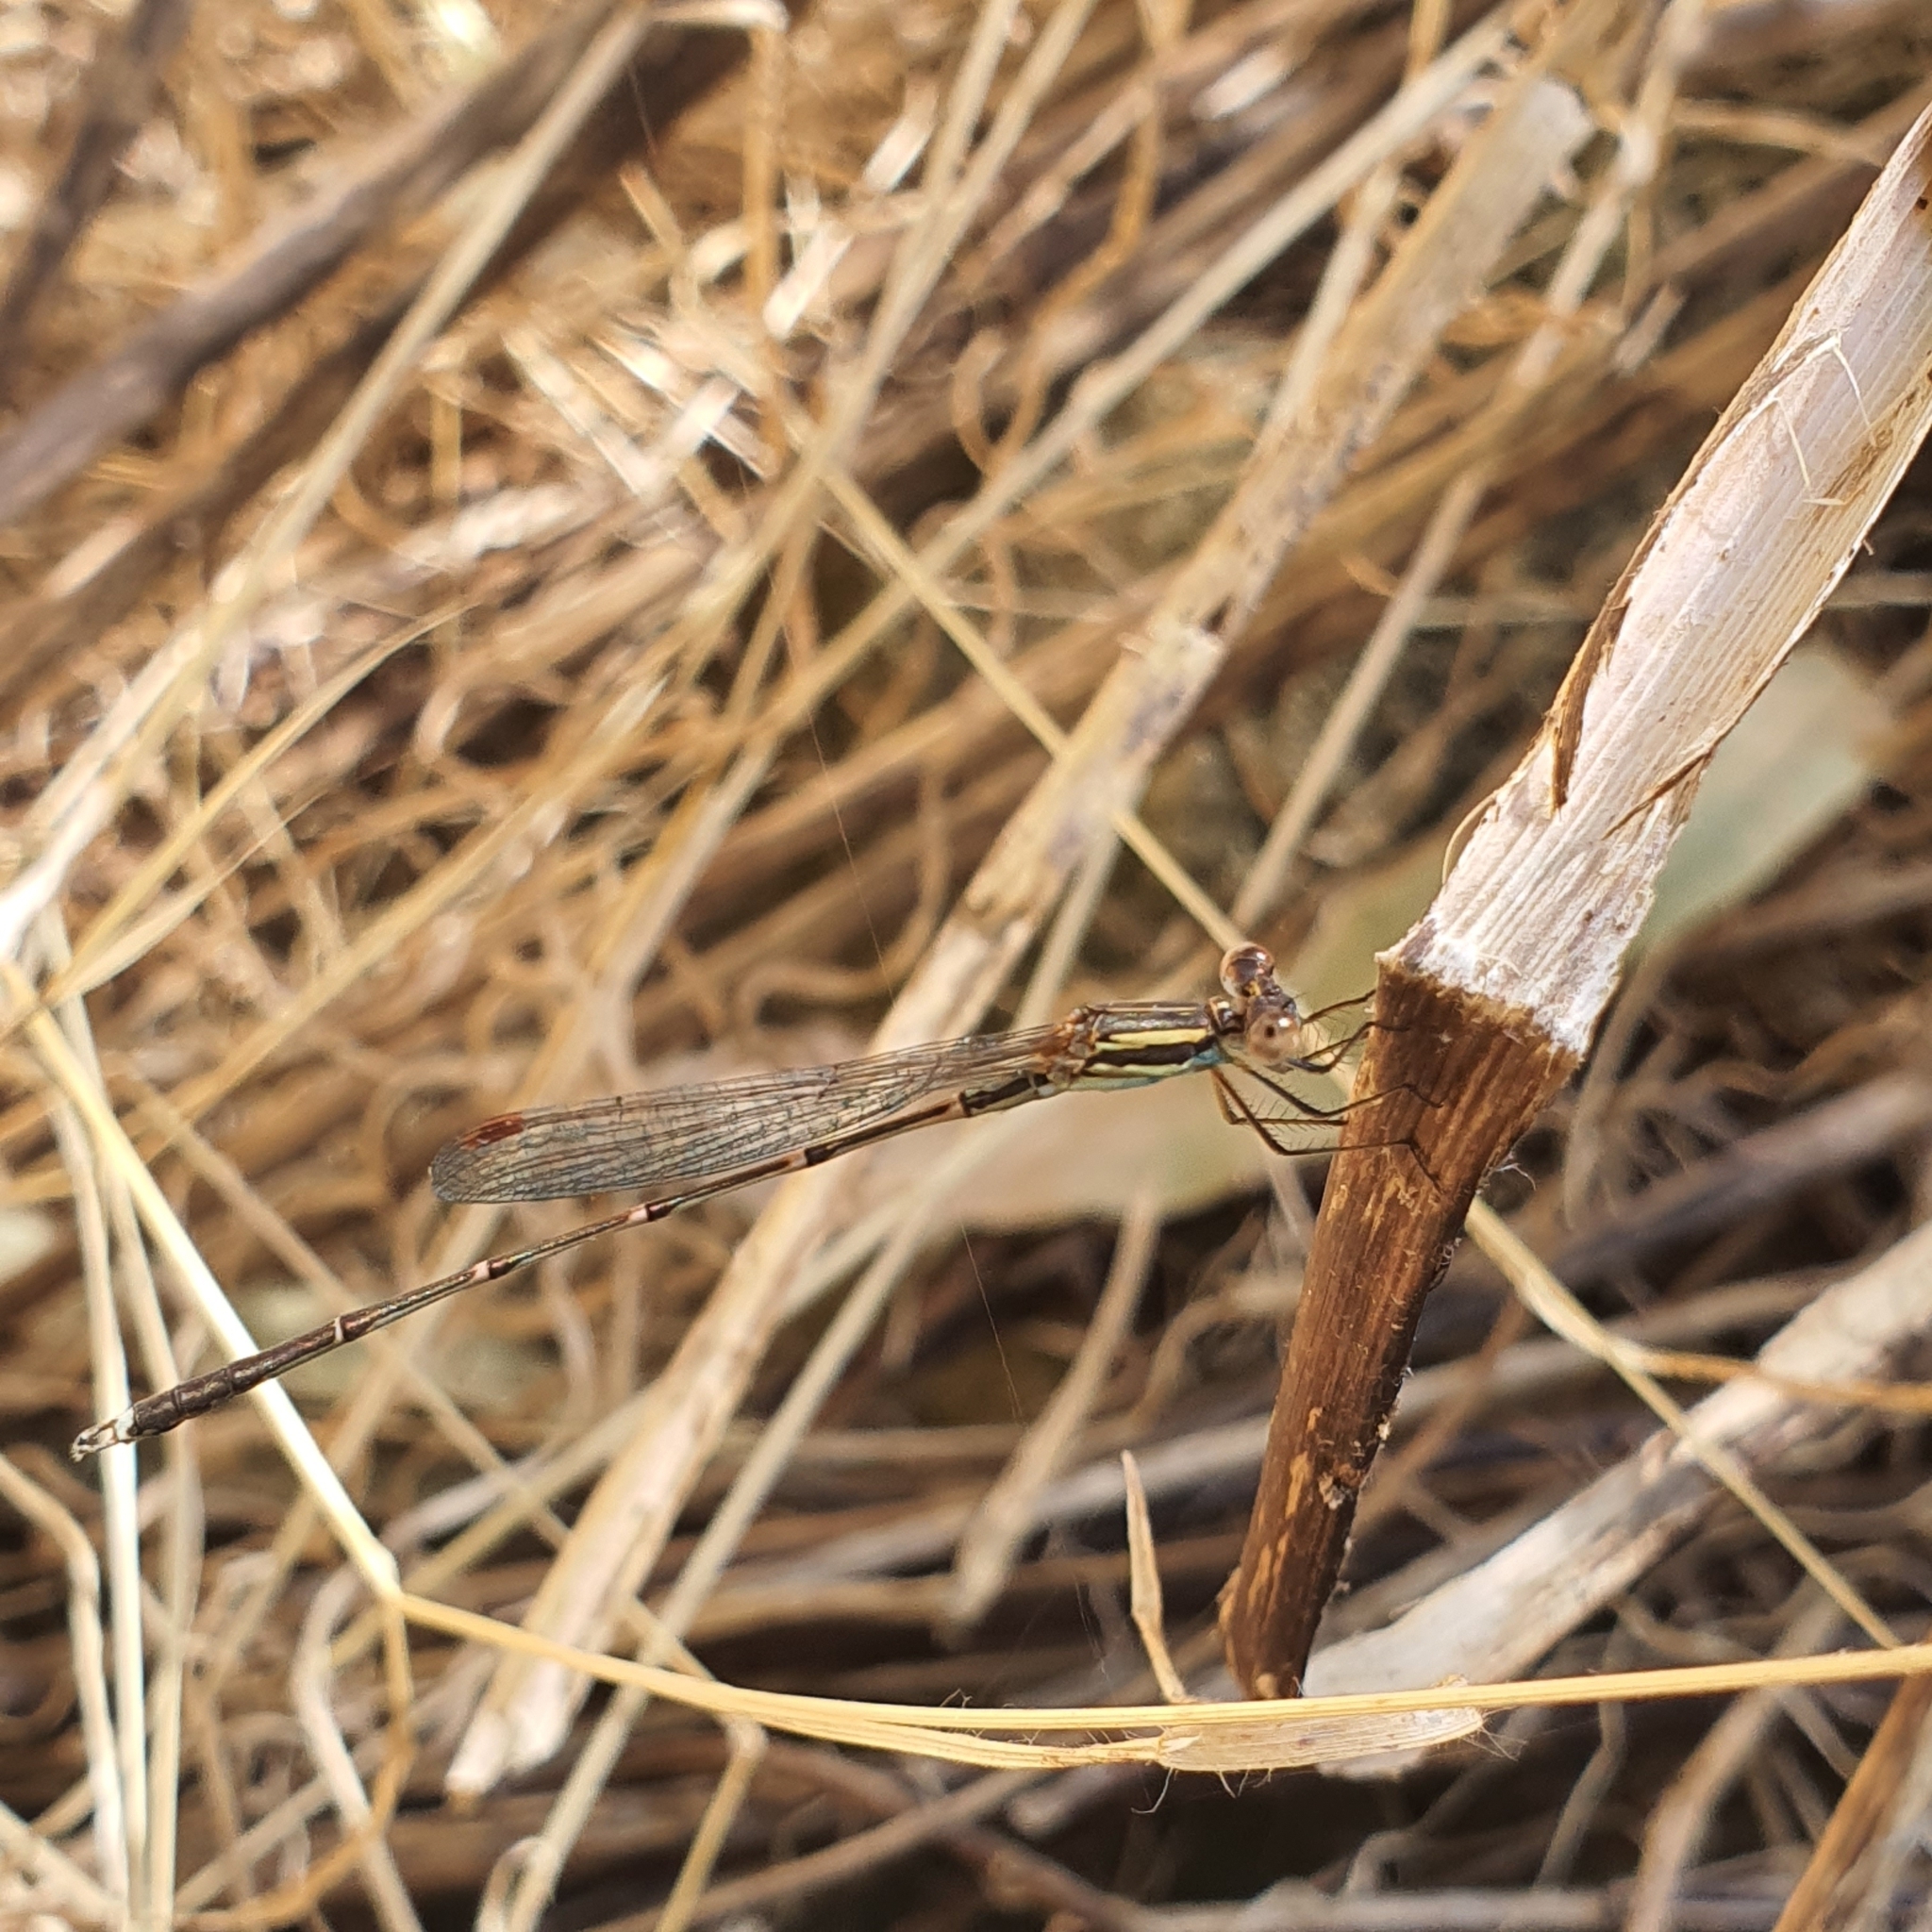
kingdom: Animalia
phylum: Arthropoda
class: Insecta
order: Odonata
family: Lestidae
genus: Austrolestes
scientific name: Austrolestes analis
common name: Slender ringtail
